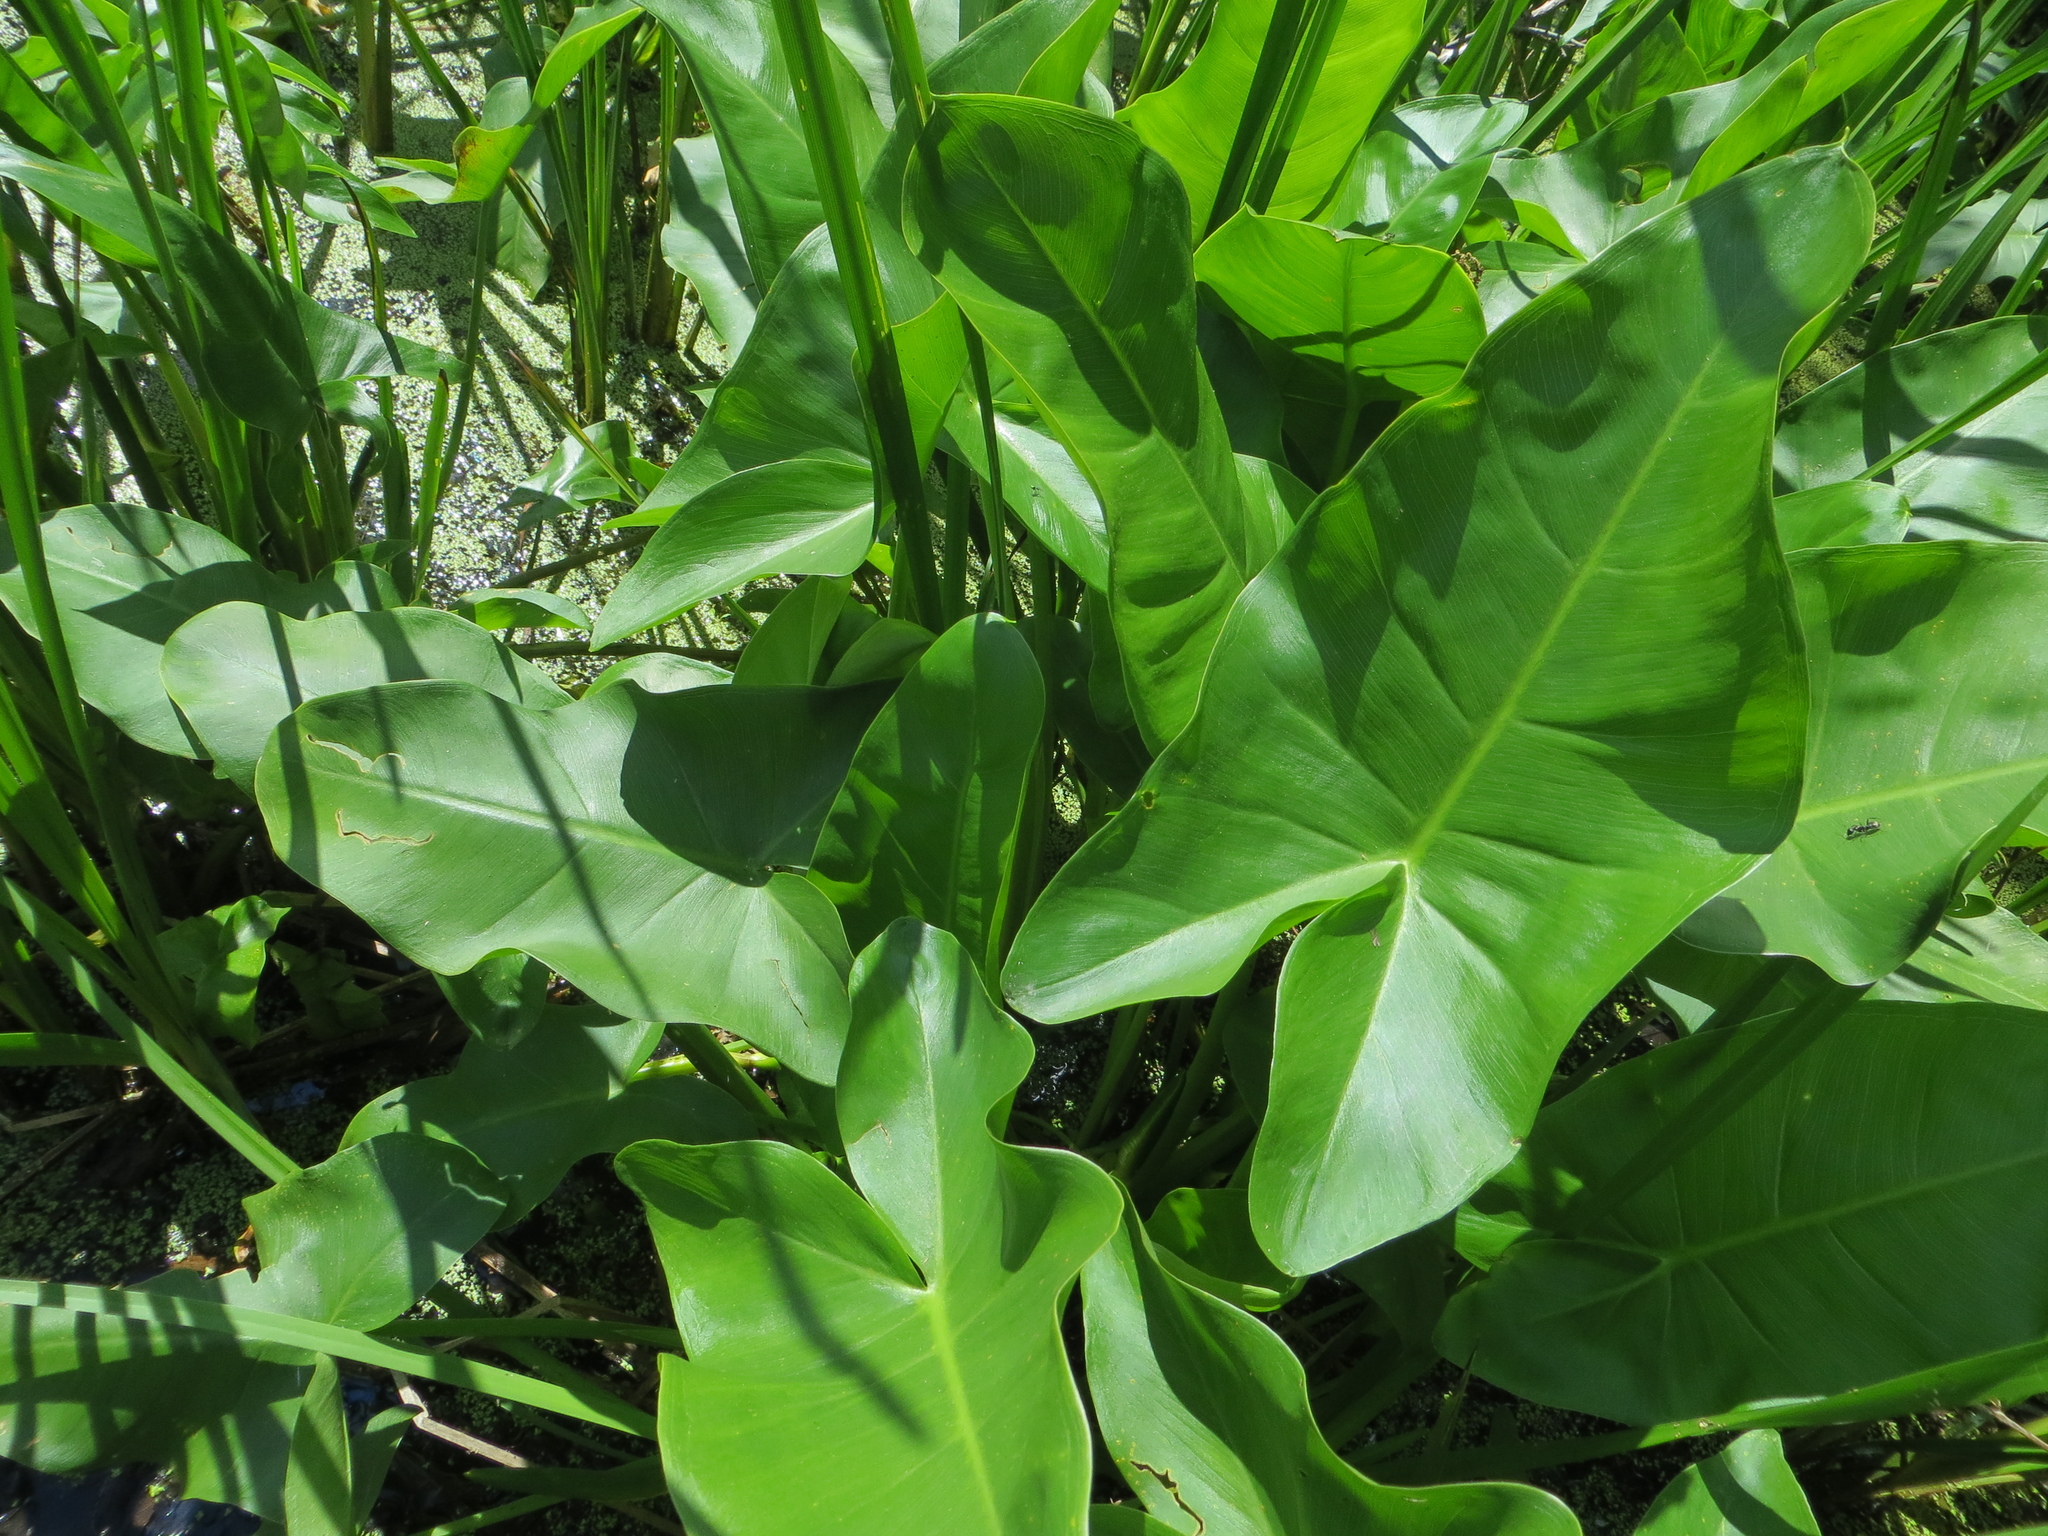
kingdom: Plantae
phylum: Tracheophyta
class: Liliopsida
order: Alismatales
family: Araceae
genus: Peltandra
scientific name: Peltandra virginica
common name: Arrow arum
